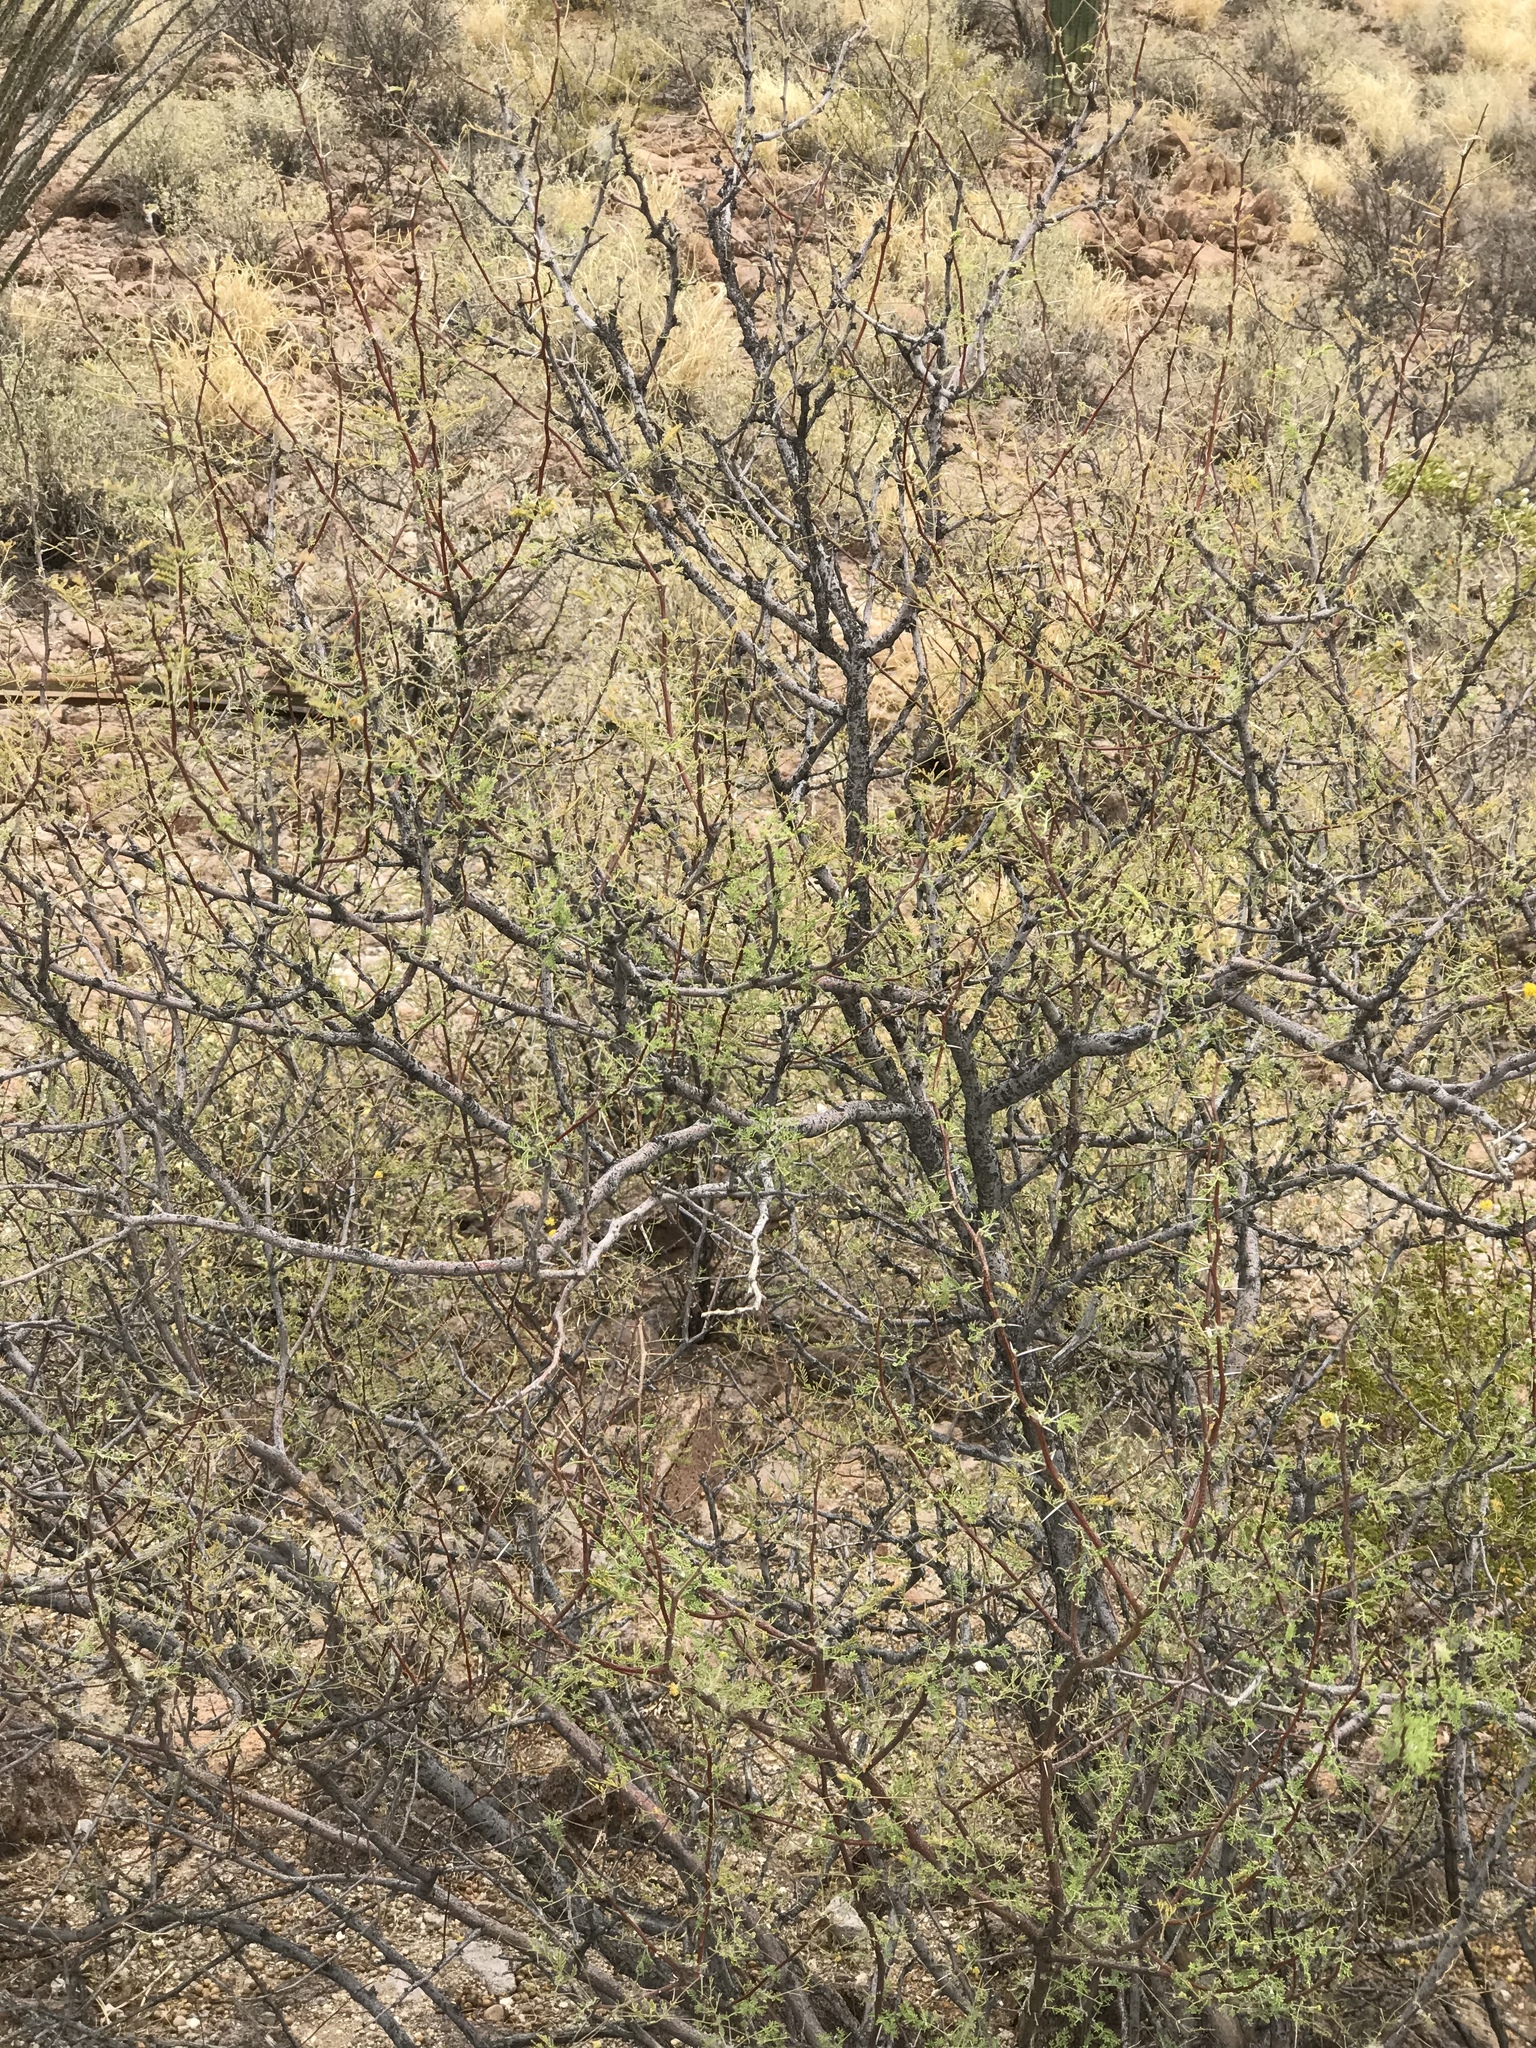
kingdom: Plantae
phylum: Tracheophyta
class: Magnoliopsida
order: Fabales
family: Fabaceae
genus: Vachellia
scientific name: Vachellia constricta
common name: Mescat acacia
